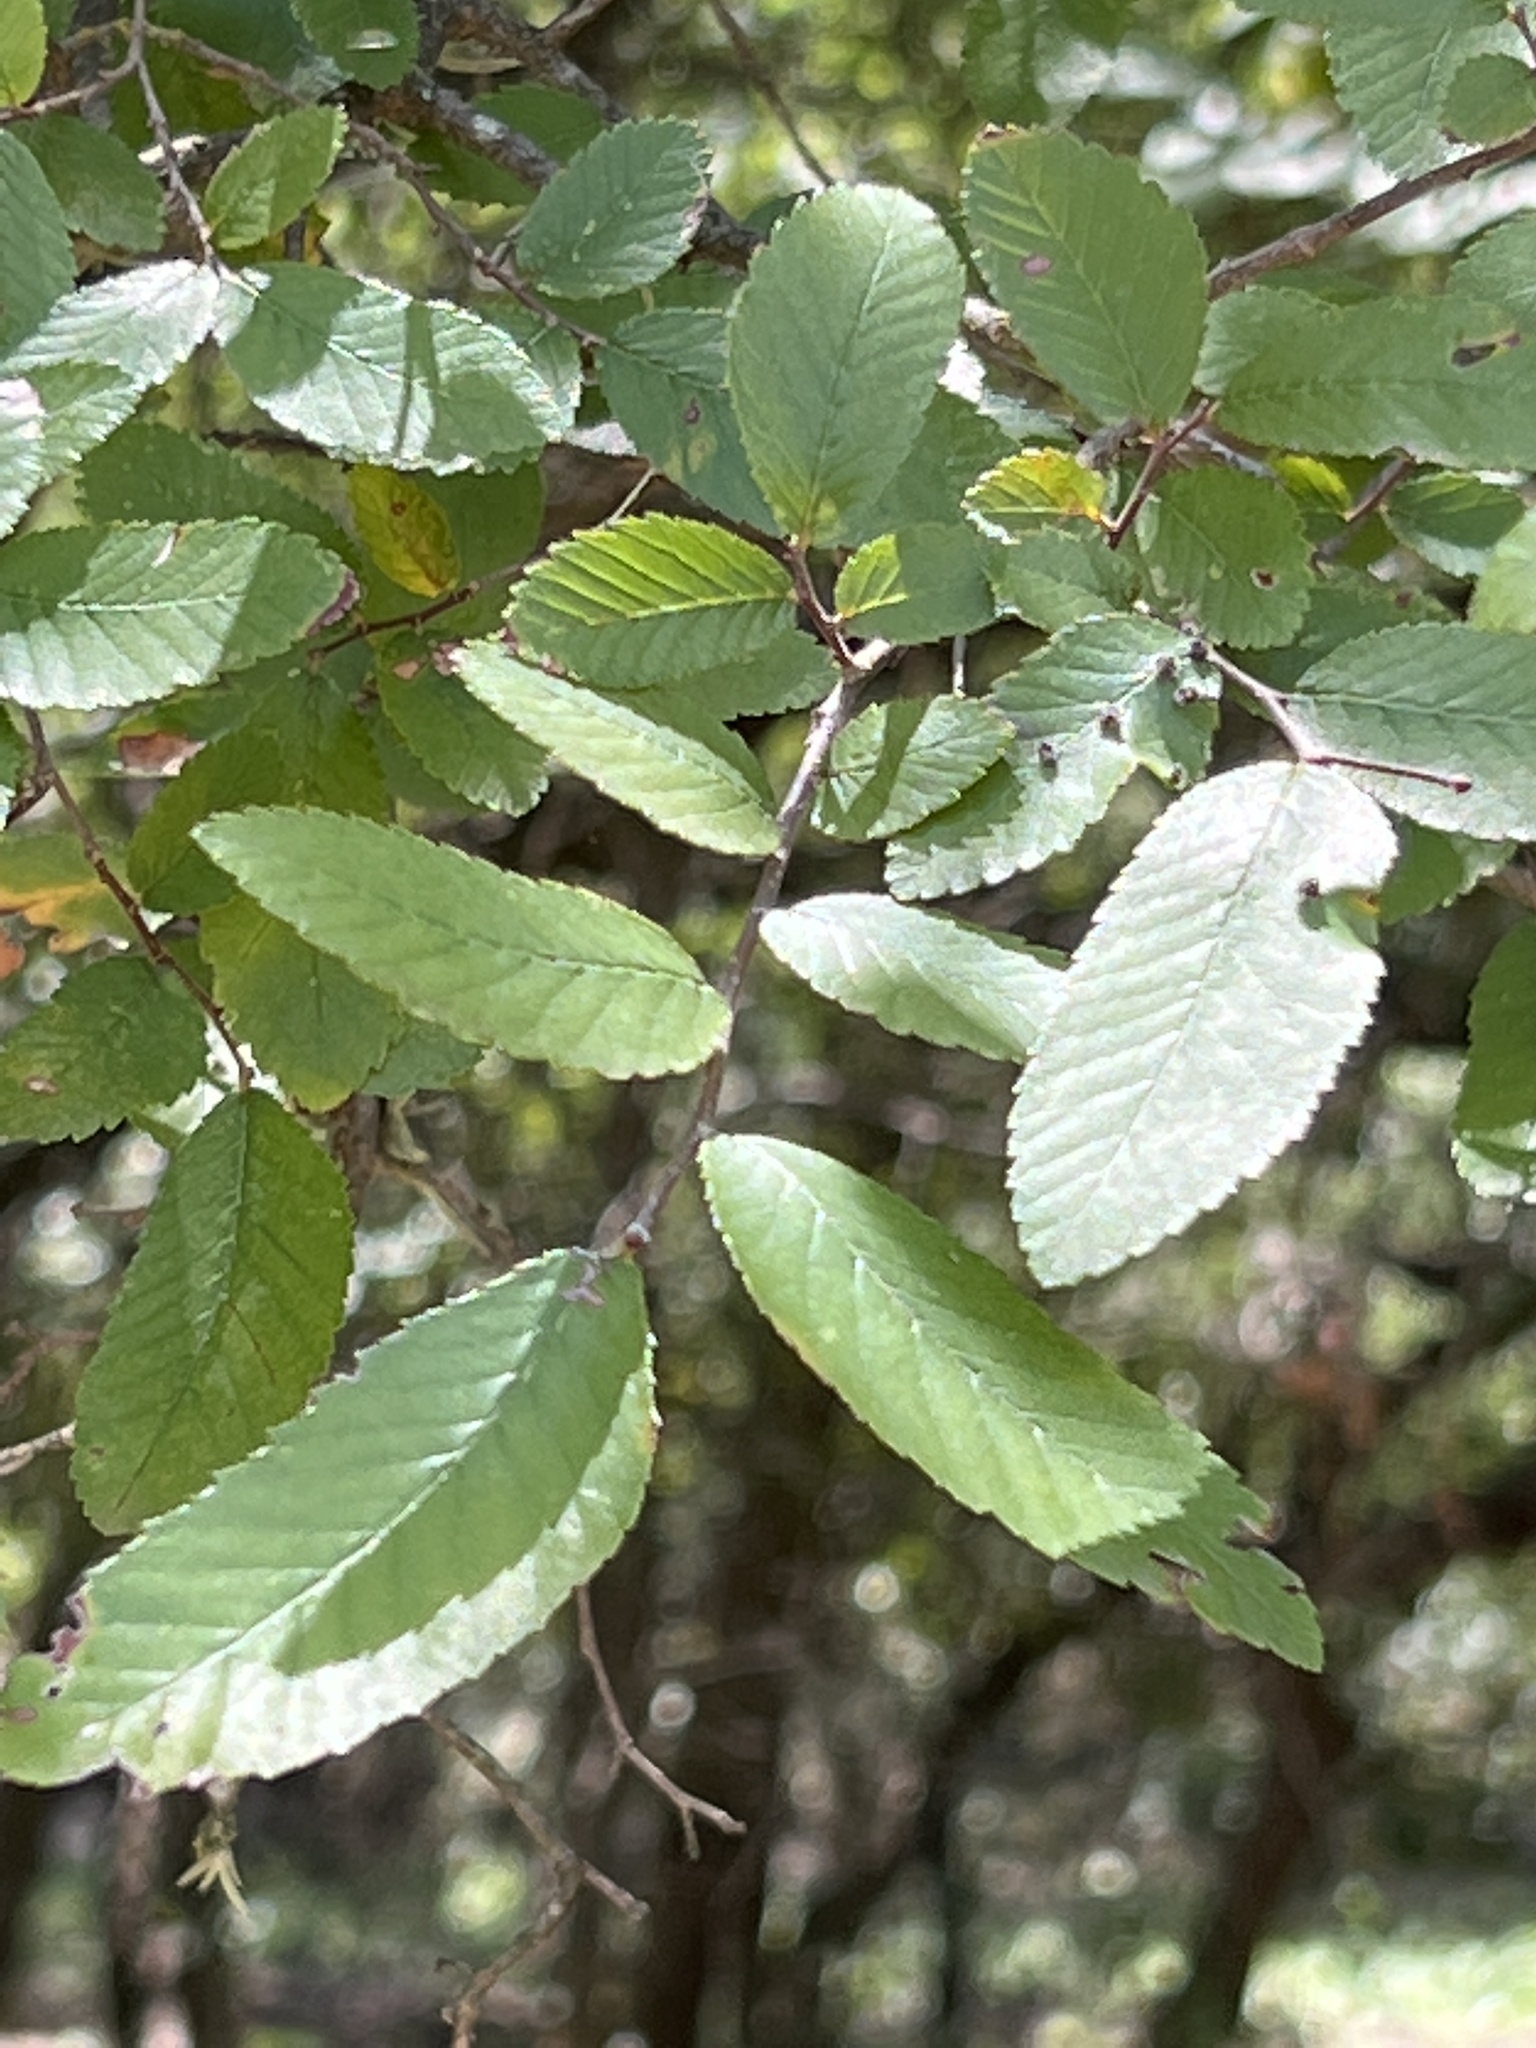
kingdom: Plantae
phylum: Tracheophyta
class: Magnoliopsida
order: Rosales
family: Ulmaceae
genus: Ulmus
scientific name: Ulmus crassifolia
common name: Basket elm
